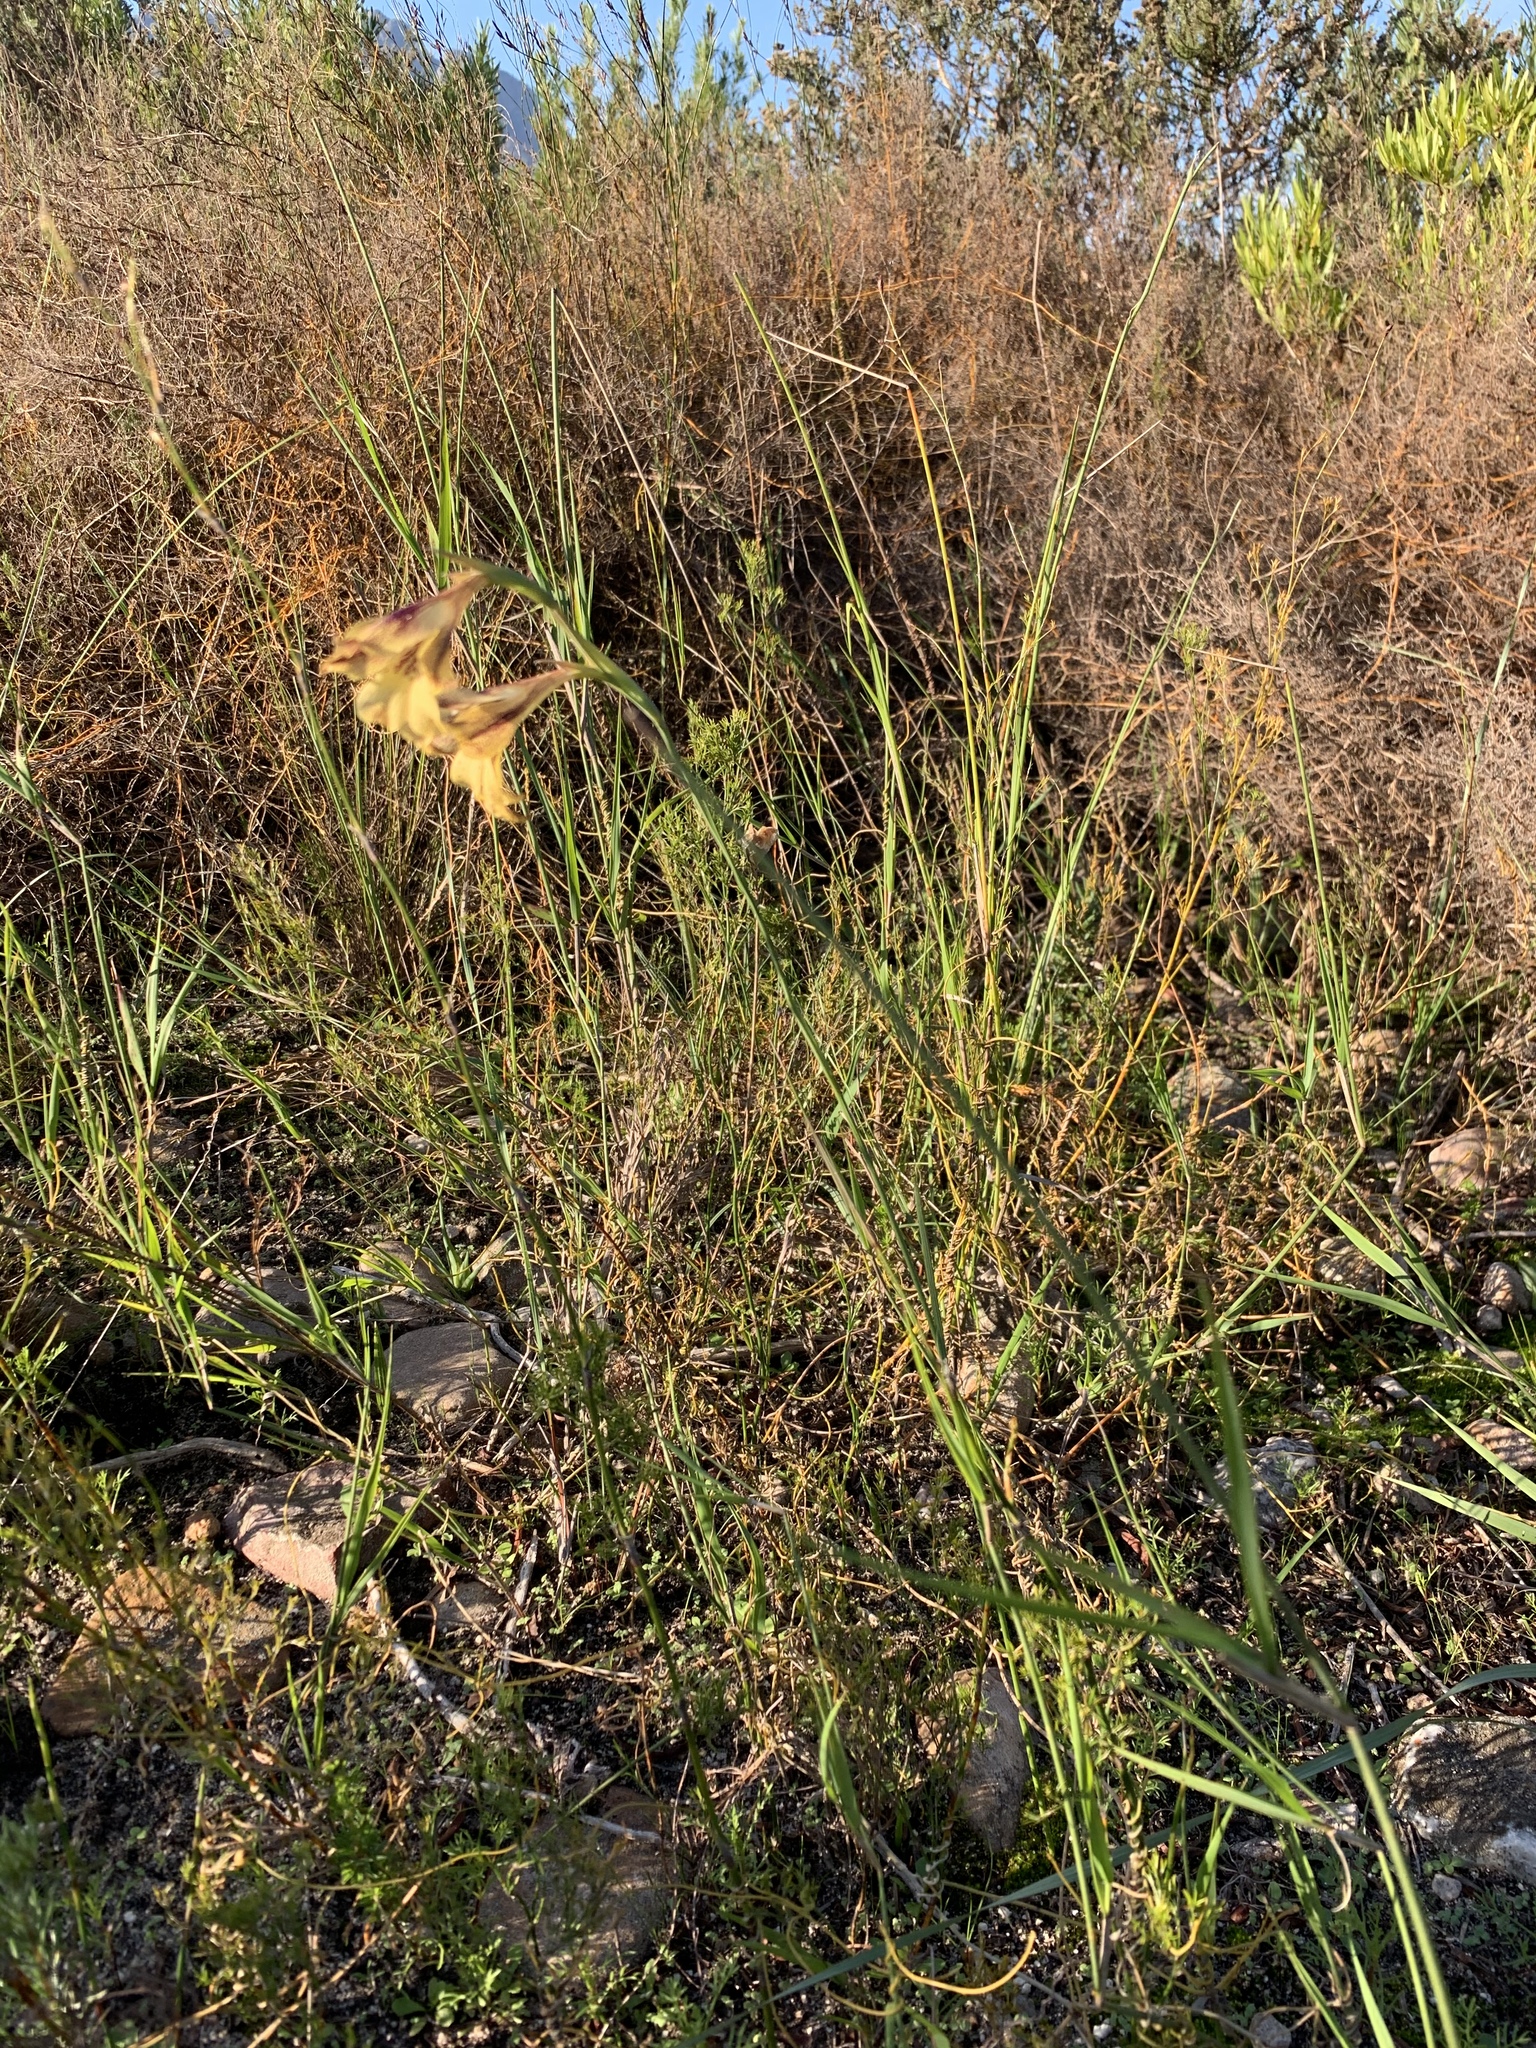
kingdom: Plantae
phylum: Tracheophyta
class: Liliopsida
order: Asparagales
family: Iridaceae
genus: Gladiolus
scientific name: Gladiolus maculatus
